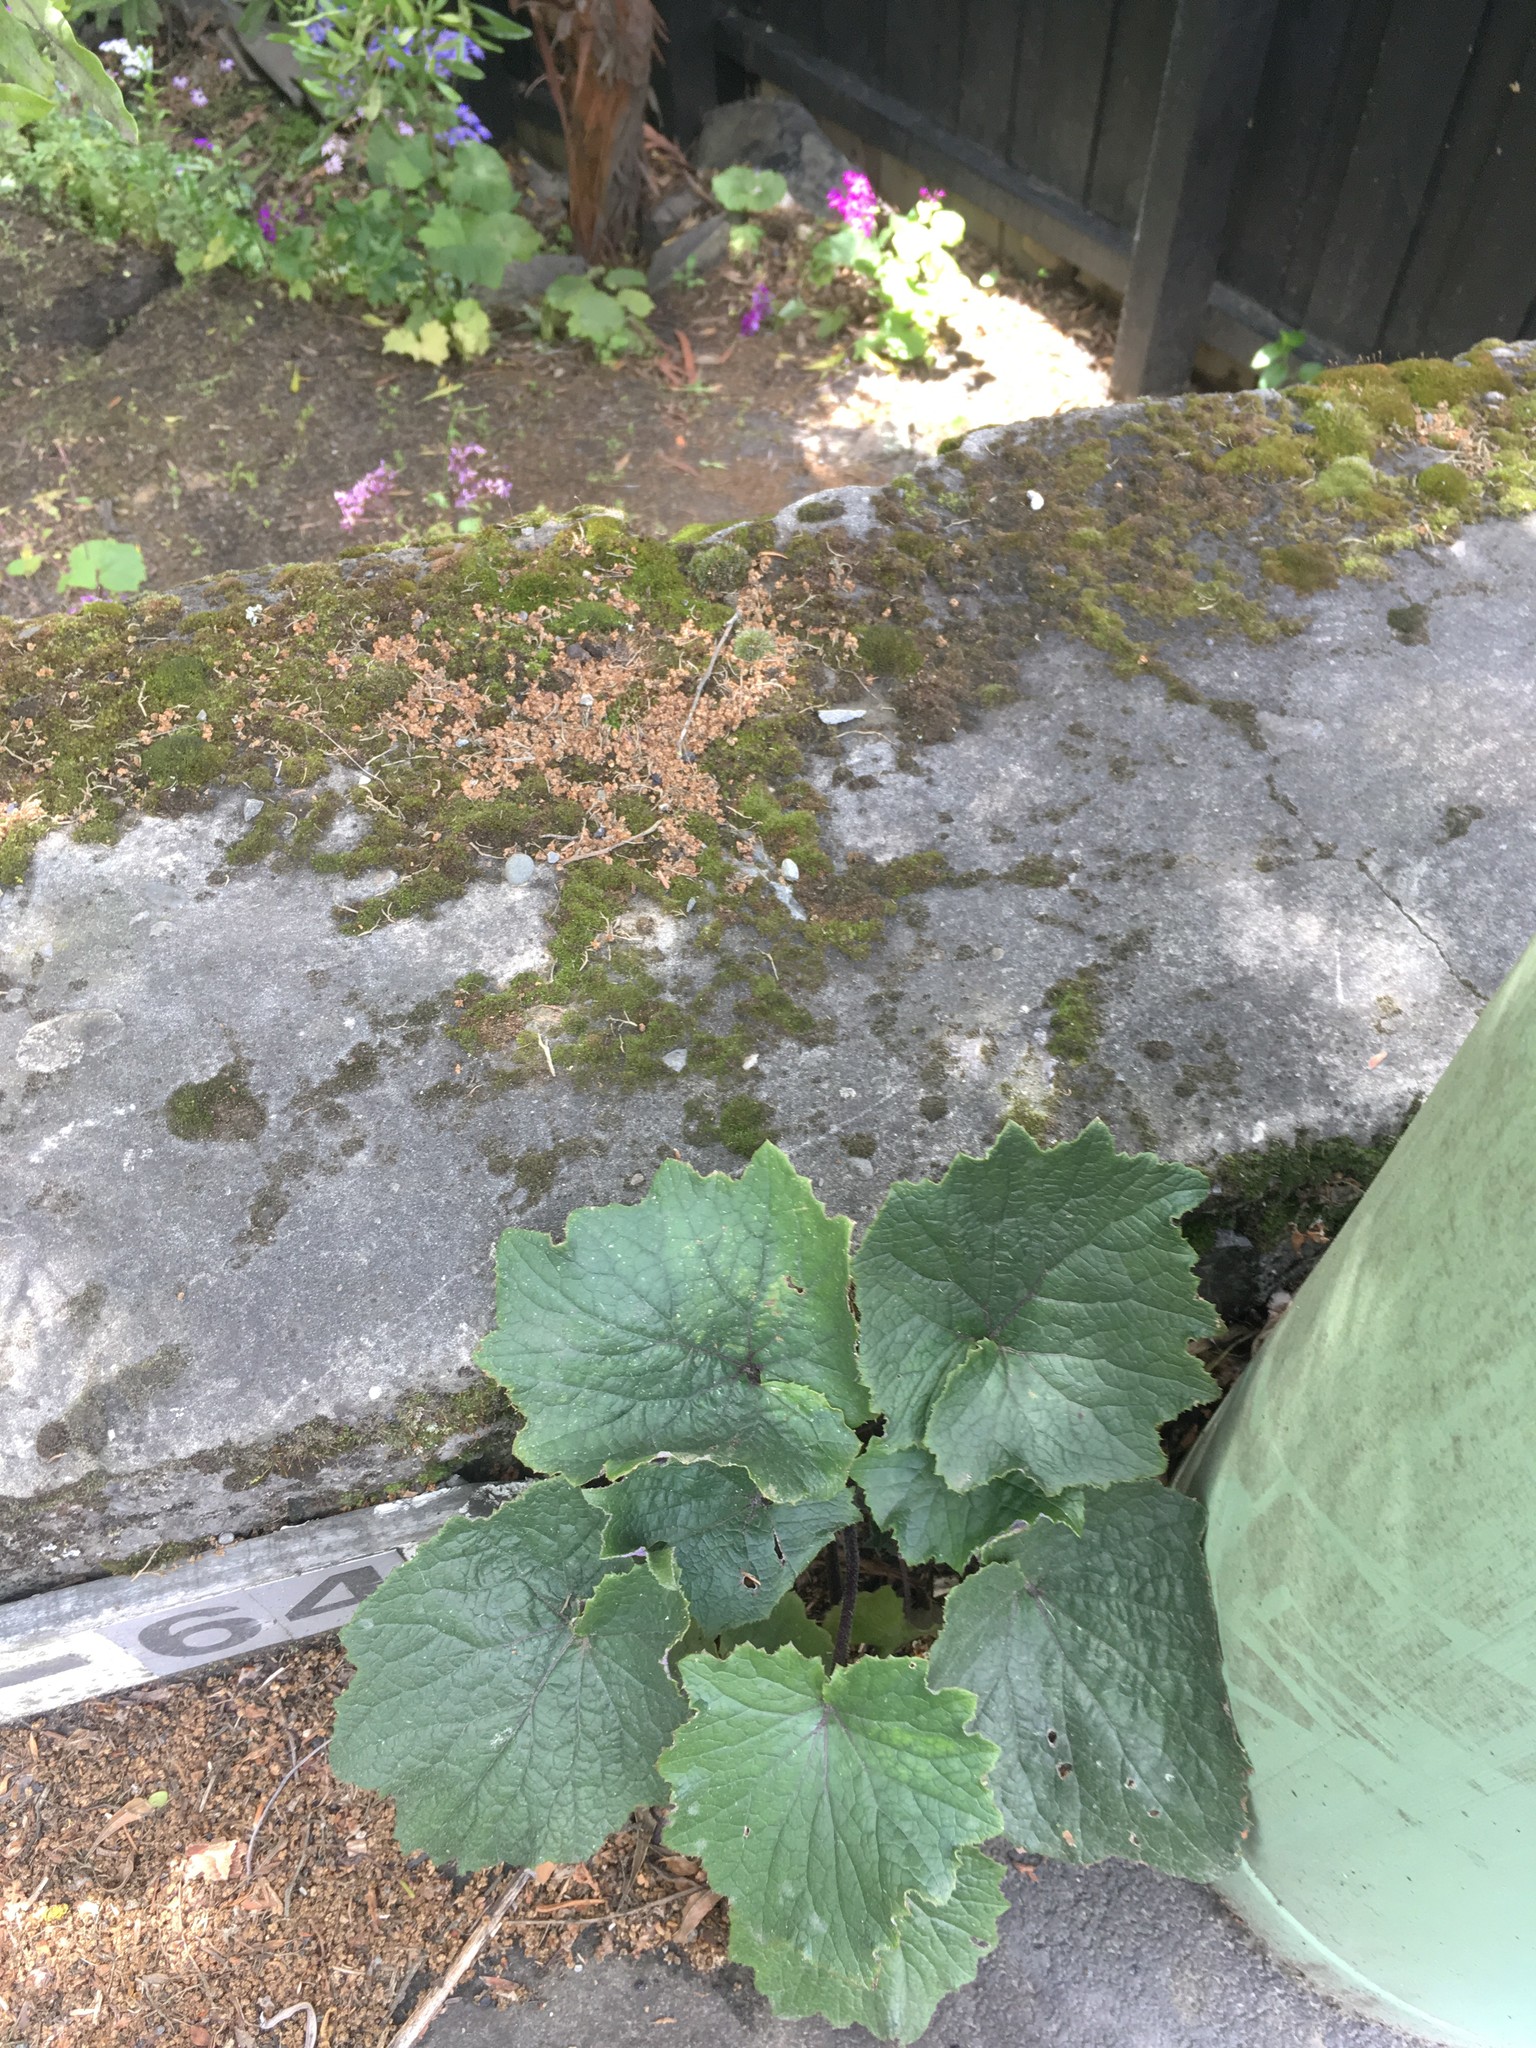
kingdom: Plantae
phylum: Tracheophyta
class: Magnoliopsida
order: Asterales
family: Asteraceae
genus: Pericallis
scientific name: Pericallis hybrida
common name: Cineraria
